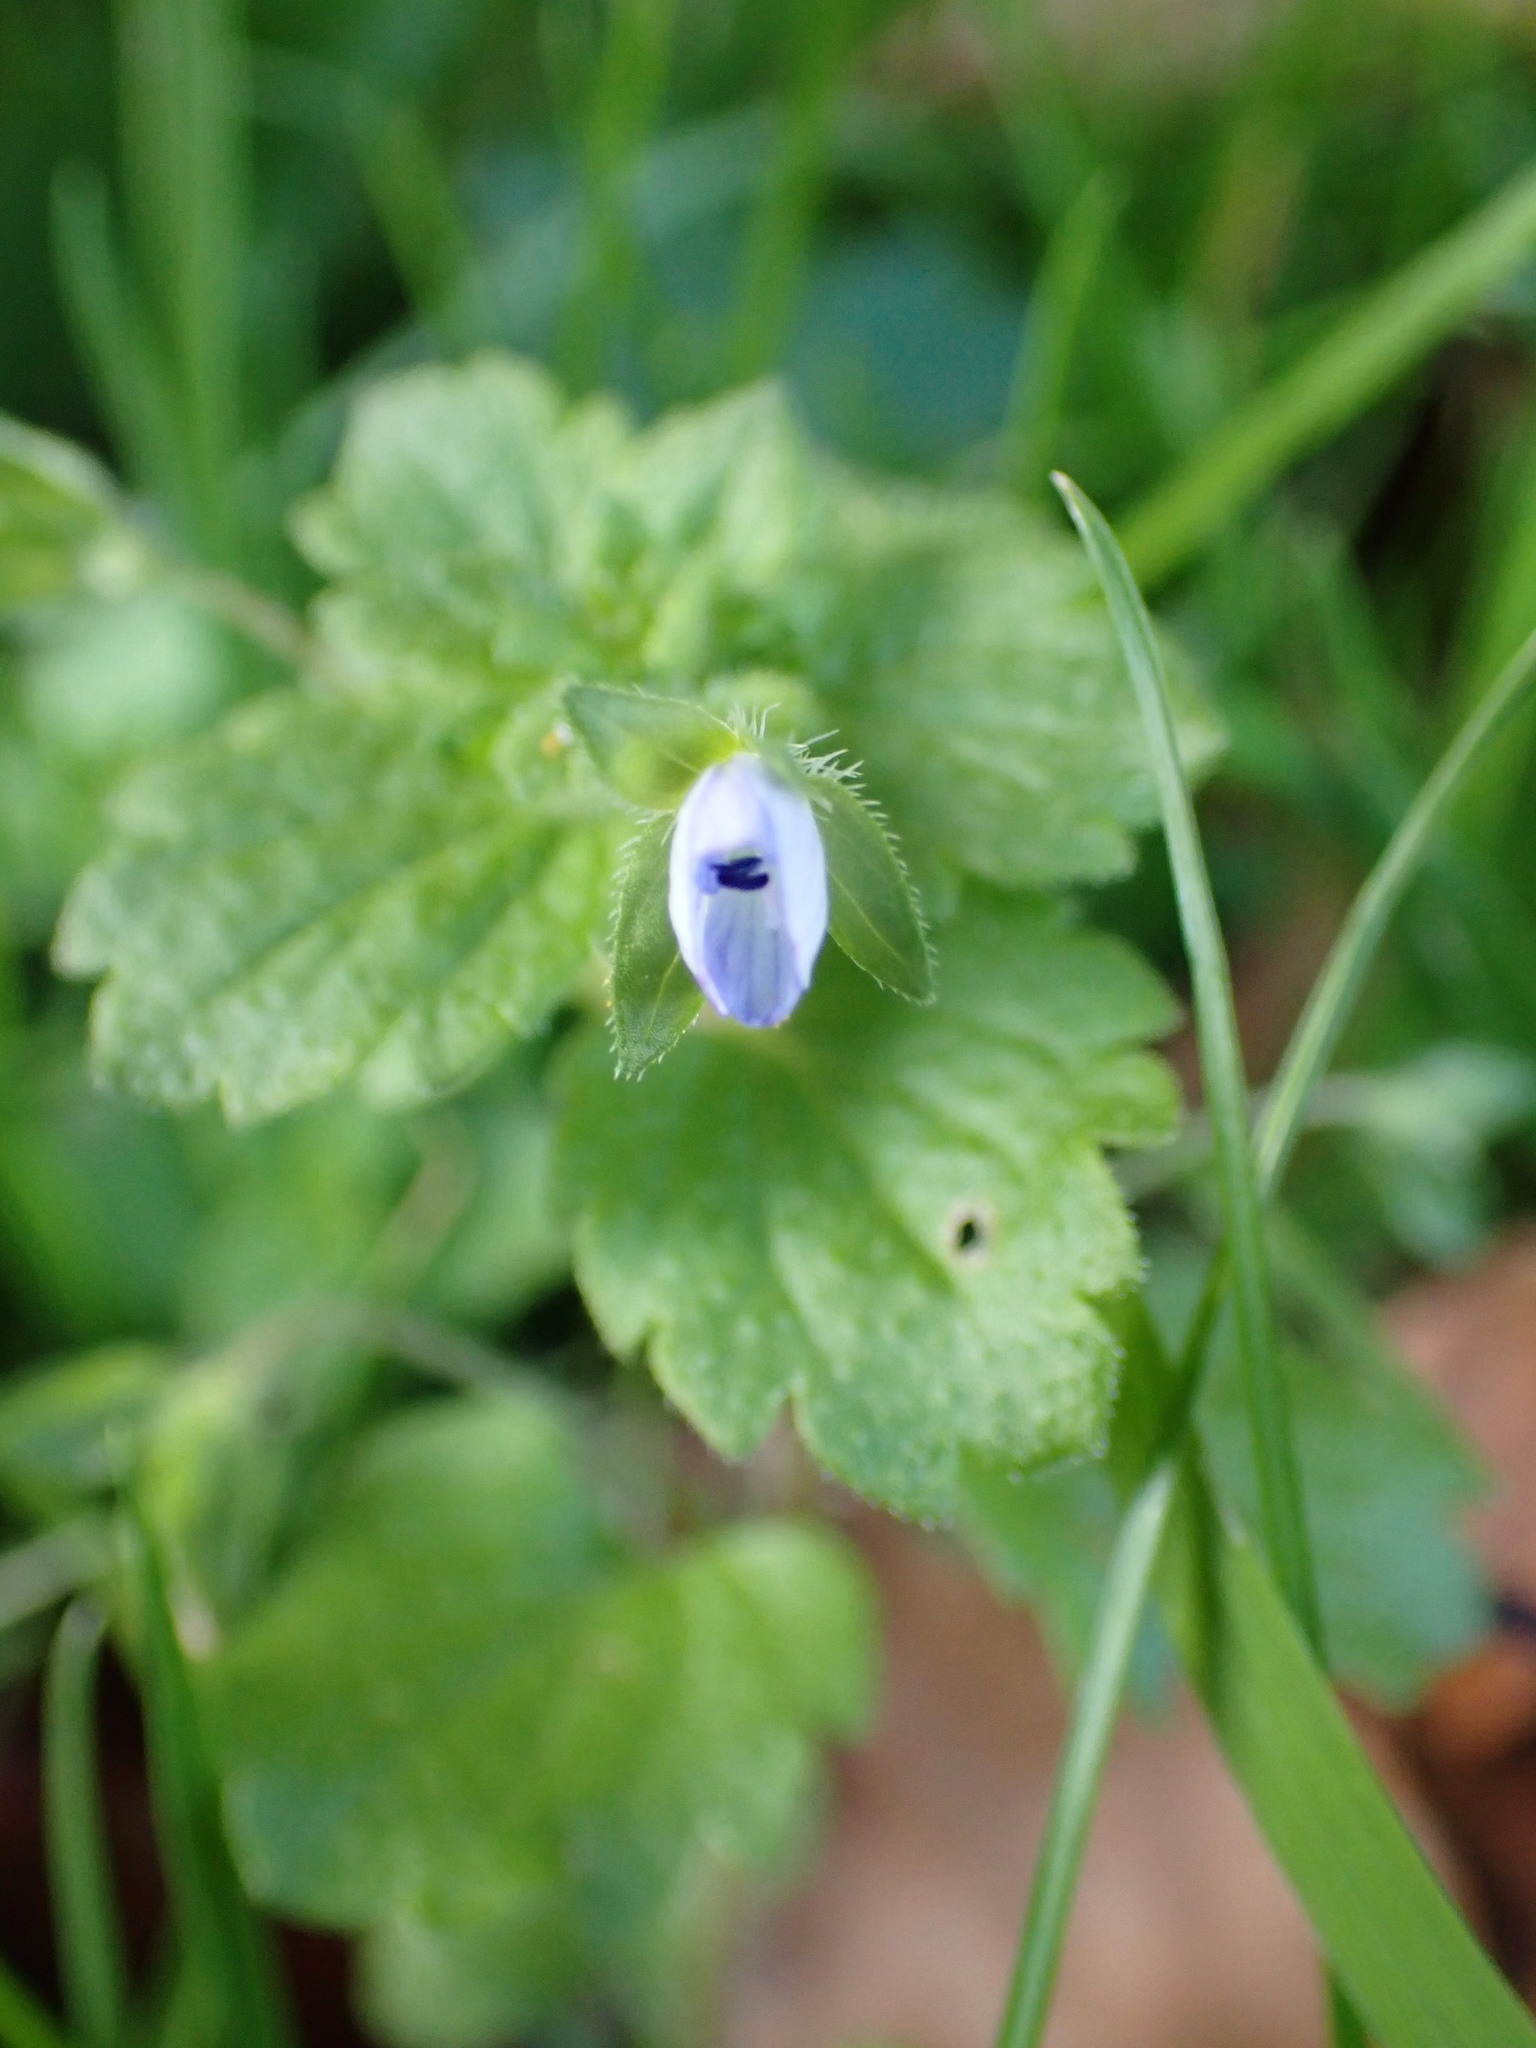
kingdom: Plantae
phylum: Tracheophyta
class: Magnoliopsida
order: Lamiales
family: Plantaginaceae
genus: Veronica
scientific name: Veronica persica
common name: Common field-speedwell
